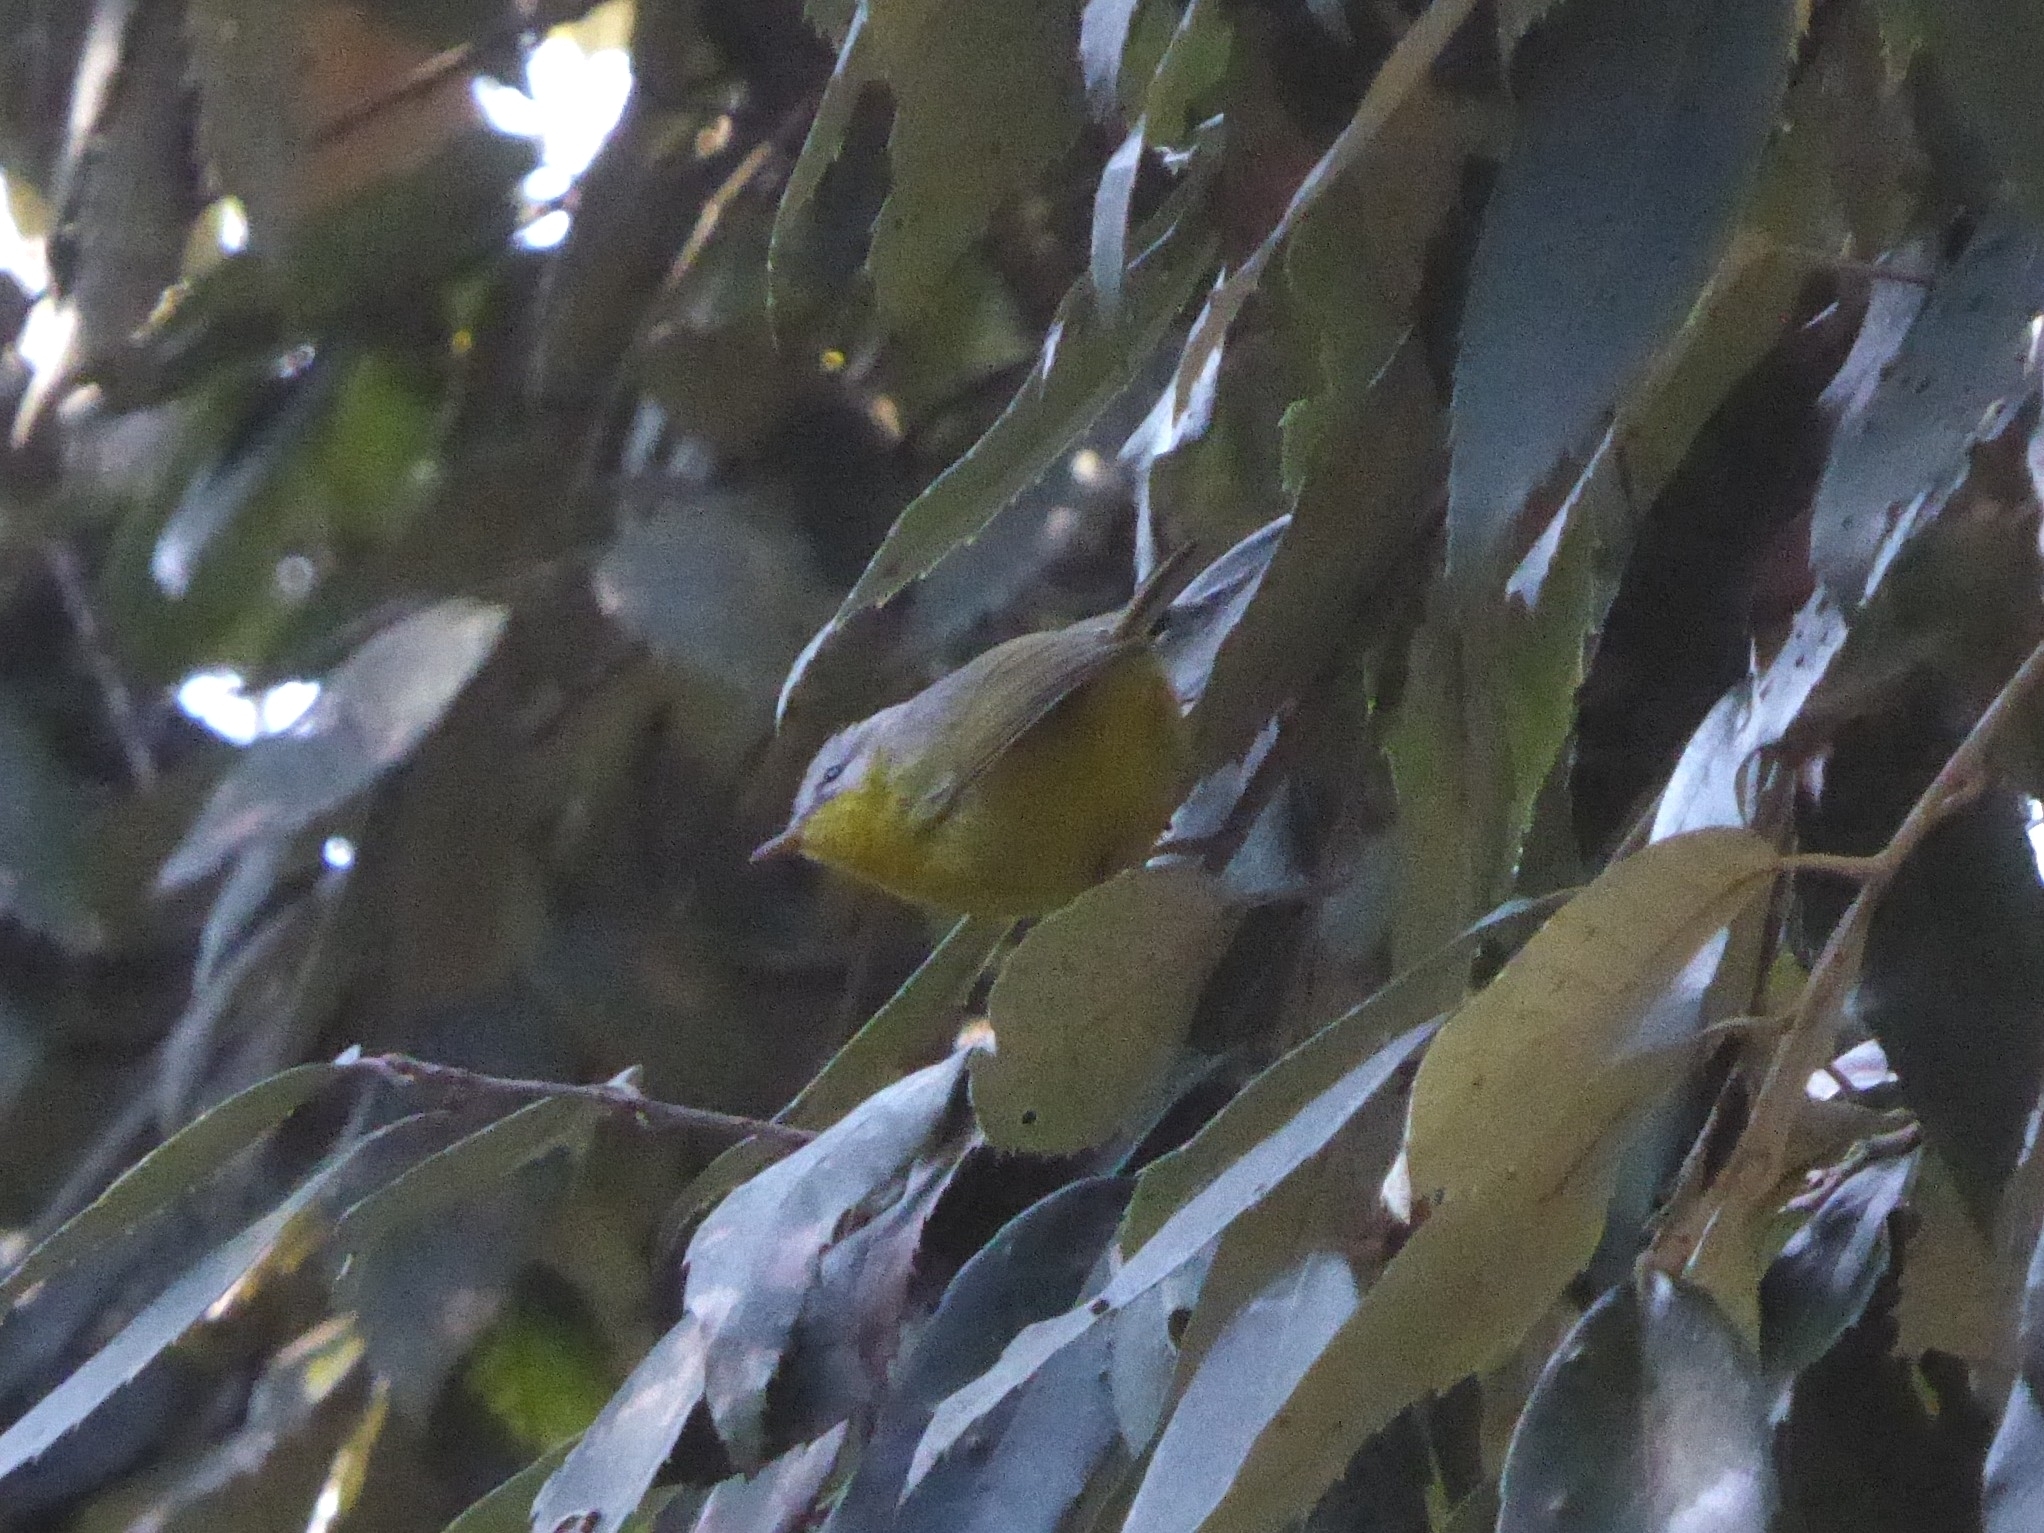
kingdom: Animalia
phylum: Chordata
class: Aves
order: Passeriformes
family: Phylloscopidae
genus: Phylloscopus
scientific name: Phylloscopus xanthoschistos
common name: Grey-hooded warbler
